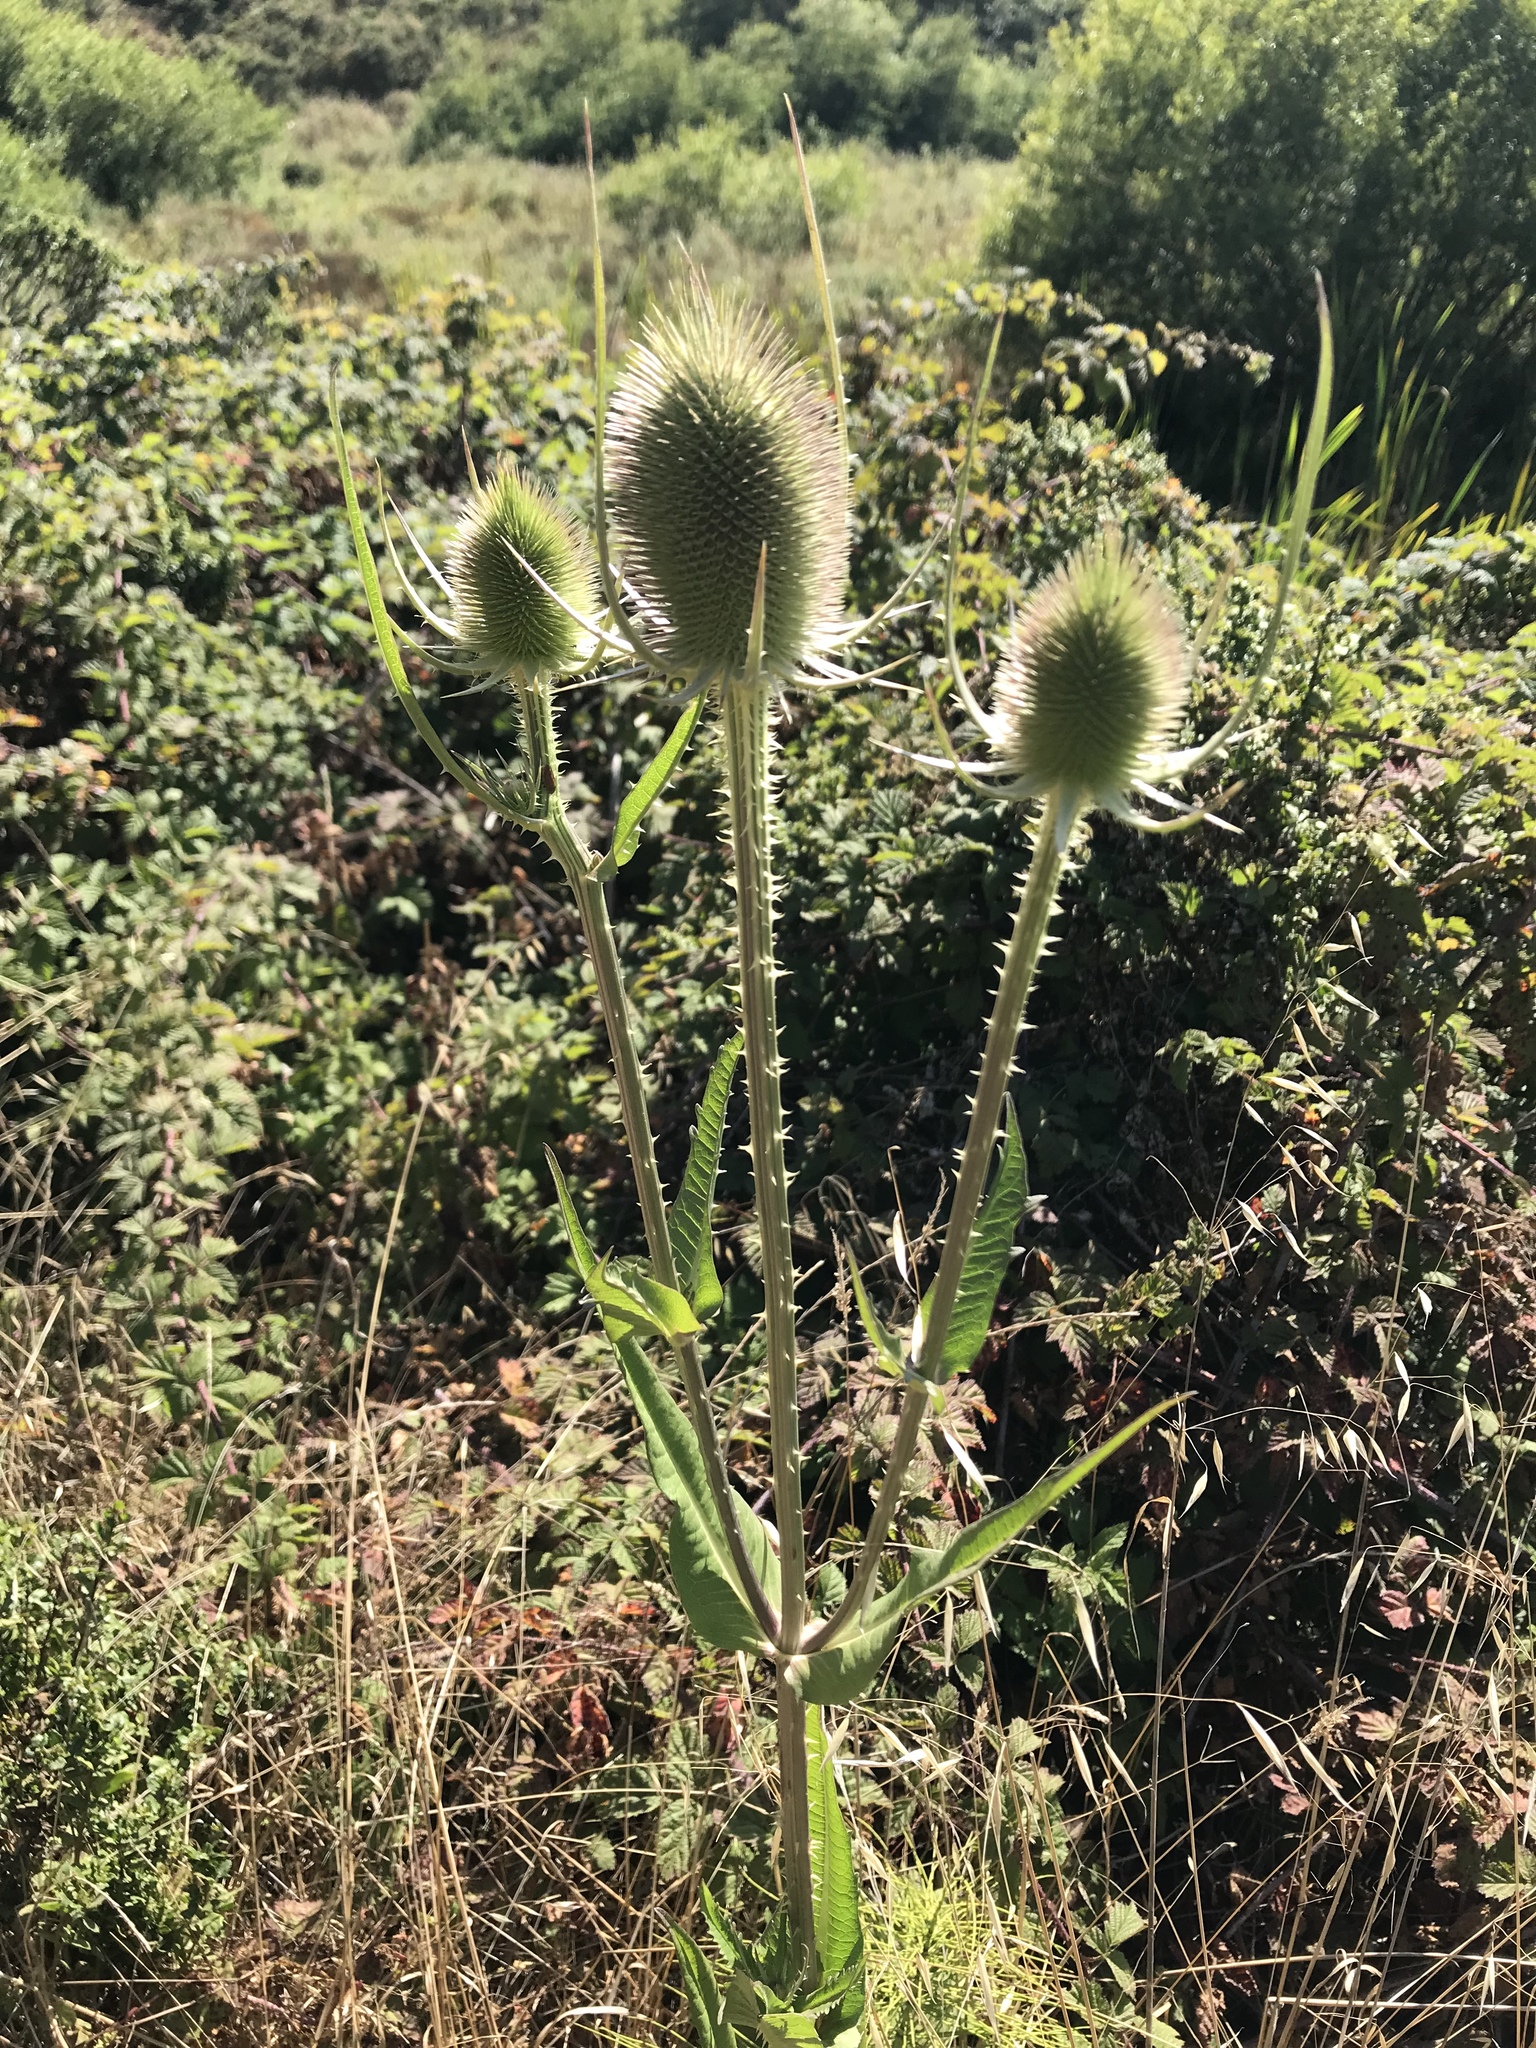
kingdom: Plantae
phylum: Tracheophyta
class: Magnoliopsida
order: Dipsacales
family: Caprifoliaceae
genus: Dipsacus
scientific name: Dipsacus fullonum
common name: Teasel
